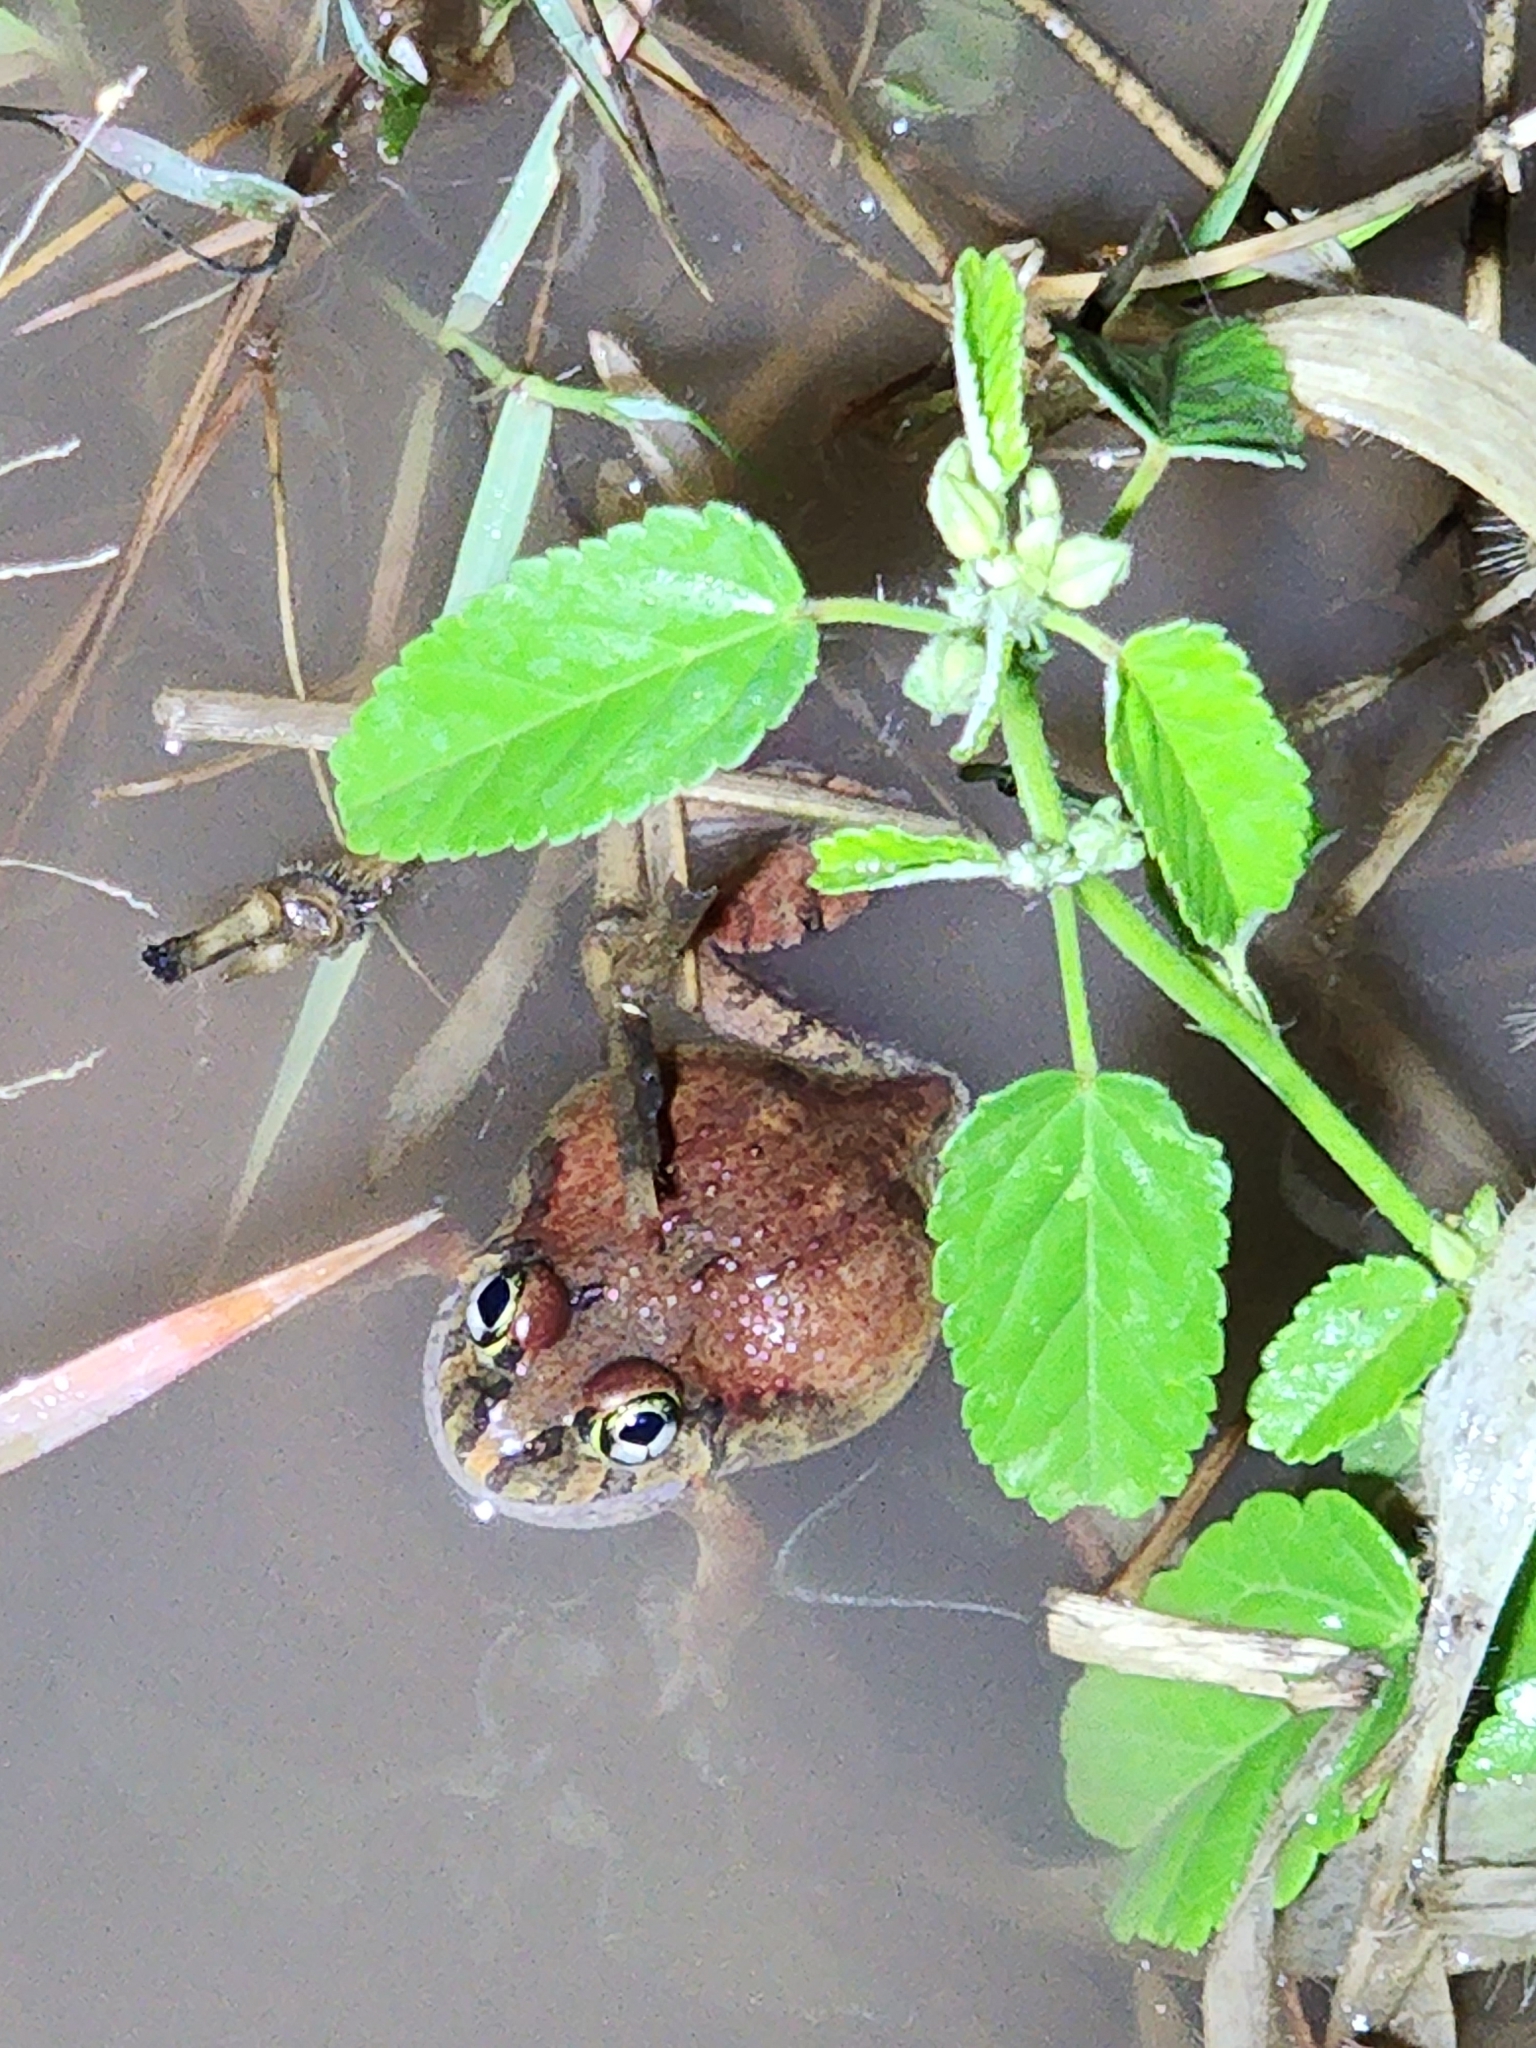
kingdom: Animalia
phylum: Chordata
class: Amphibia
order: Anura
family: Limnodynastidae
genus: Platyplectrum
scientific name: Platyplectrum ornatum
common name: Ornate burrowing frog
